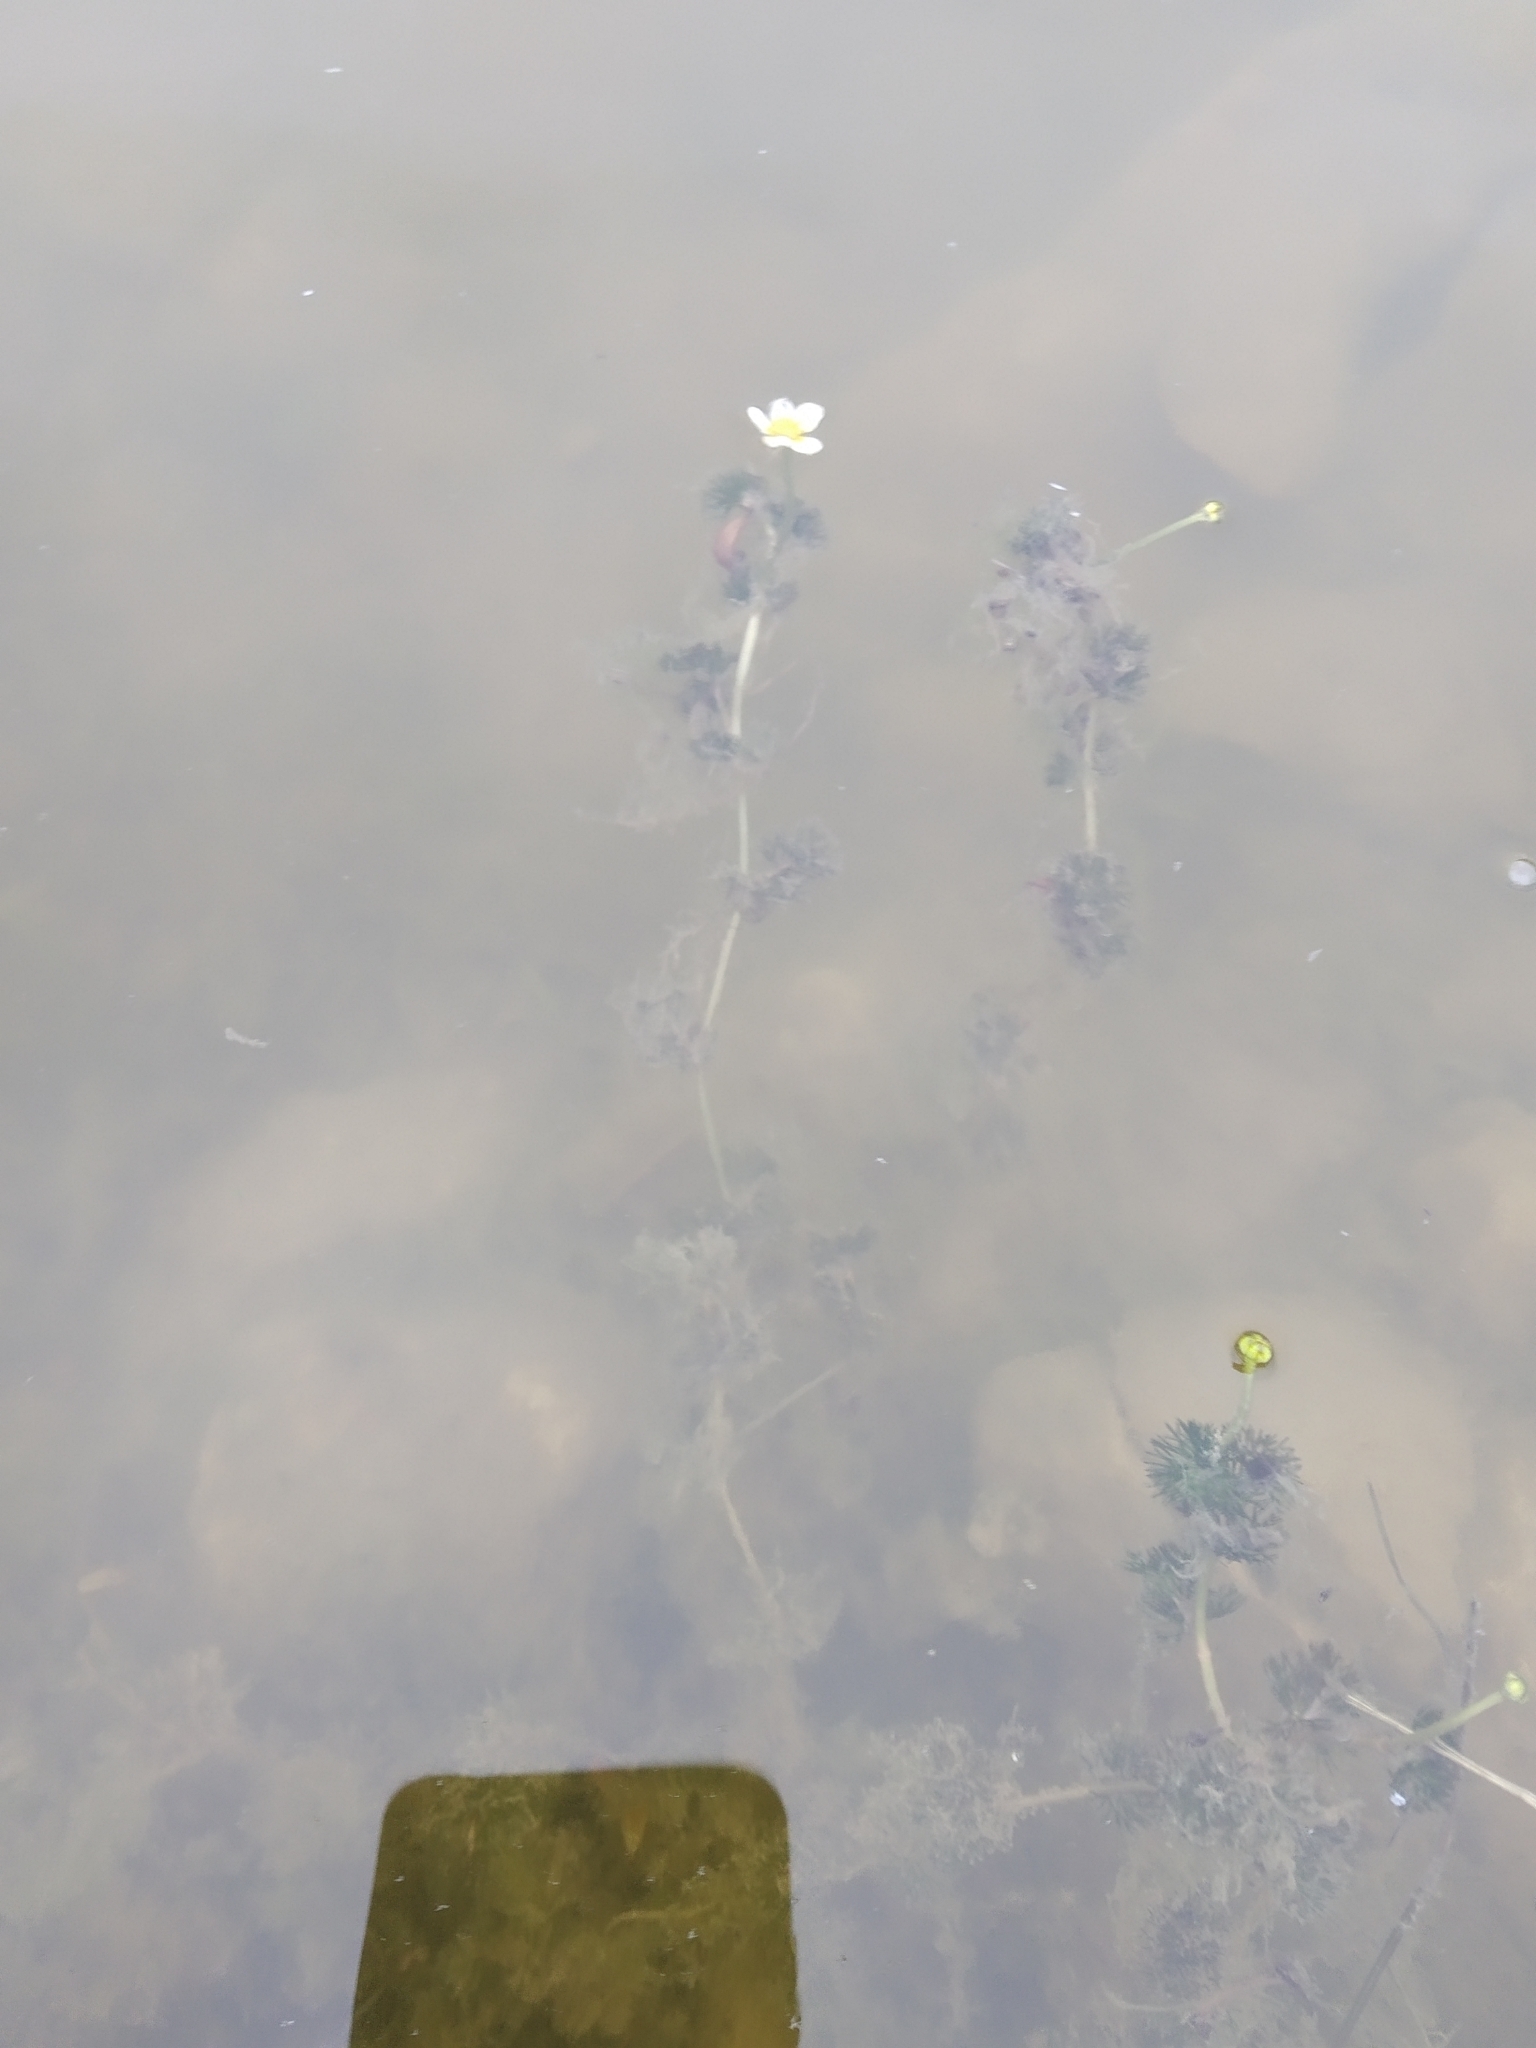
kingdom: Plantae
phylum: Tracheophyta
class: Magnoliopsida
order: Ranunculales
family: Ranunculaceae
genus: Ranunculus
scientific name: Ranunculus aquatilis
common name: Common water-crowfoot
